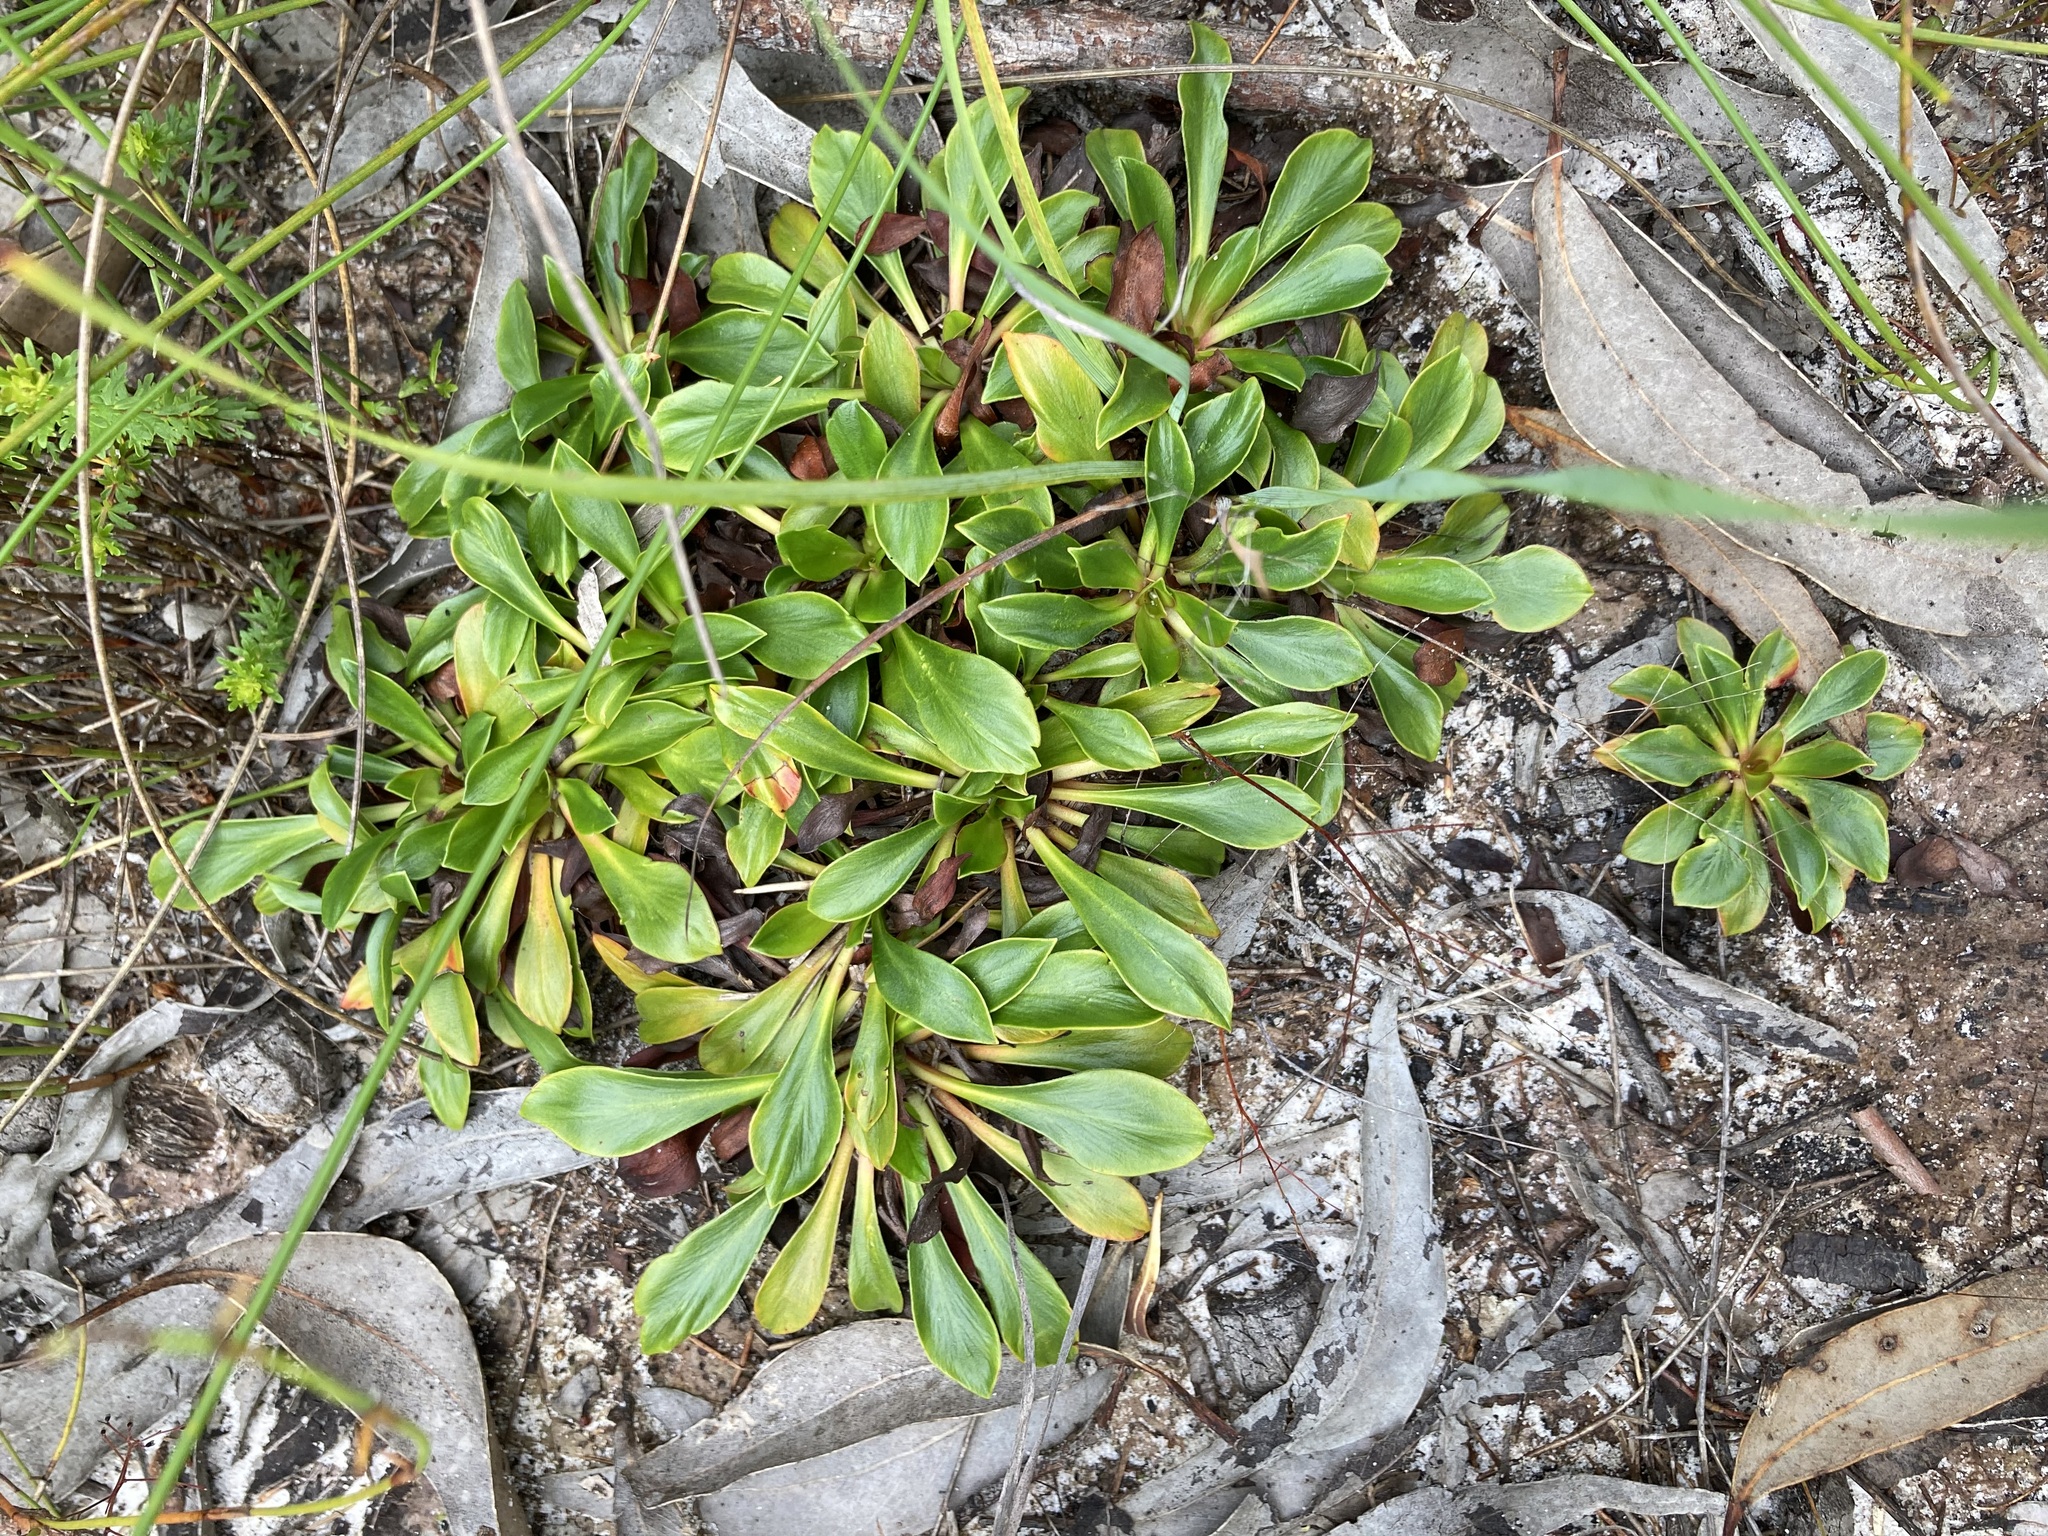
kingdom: Plantae
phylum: Tracheophyta
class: Magnoliopsida
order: Asterales
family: Stylidiaceae
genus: Stylidium
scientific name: Stylidium ornatum
